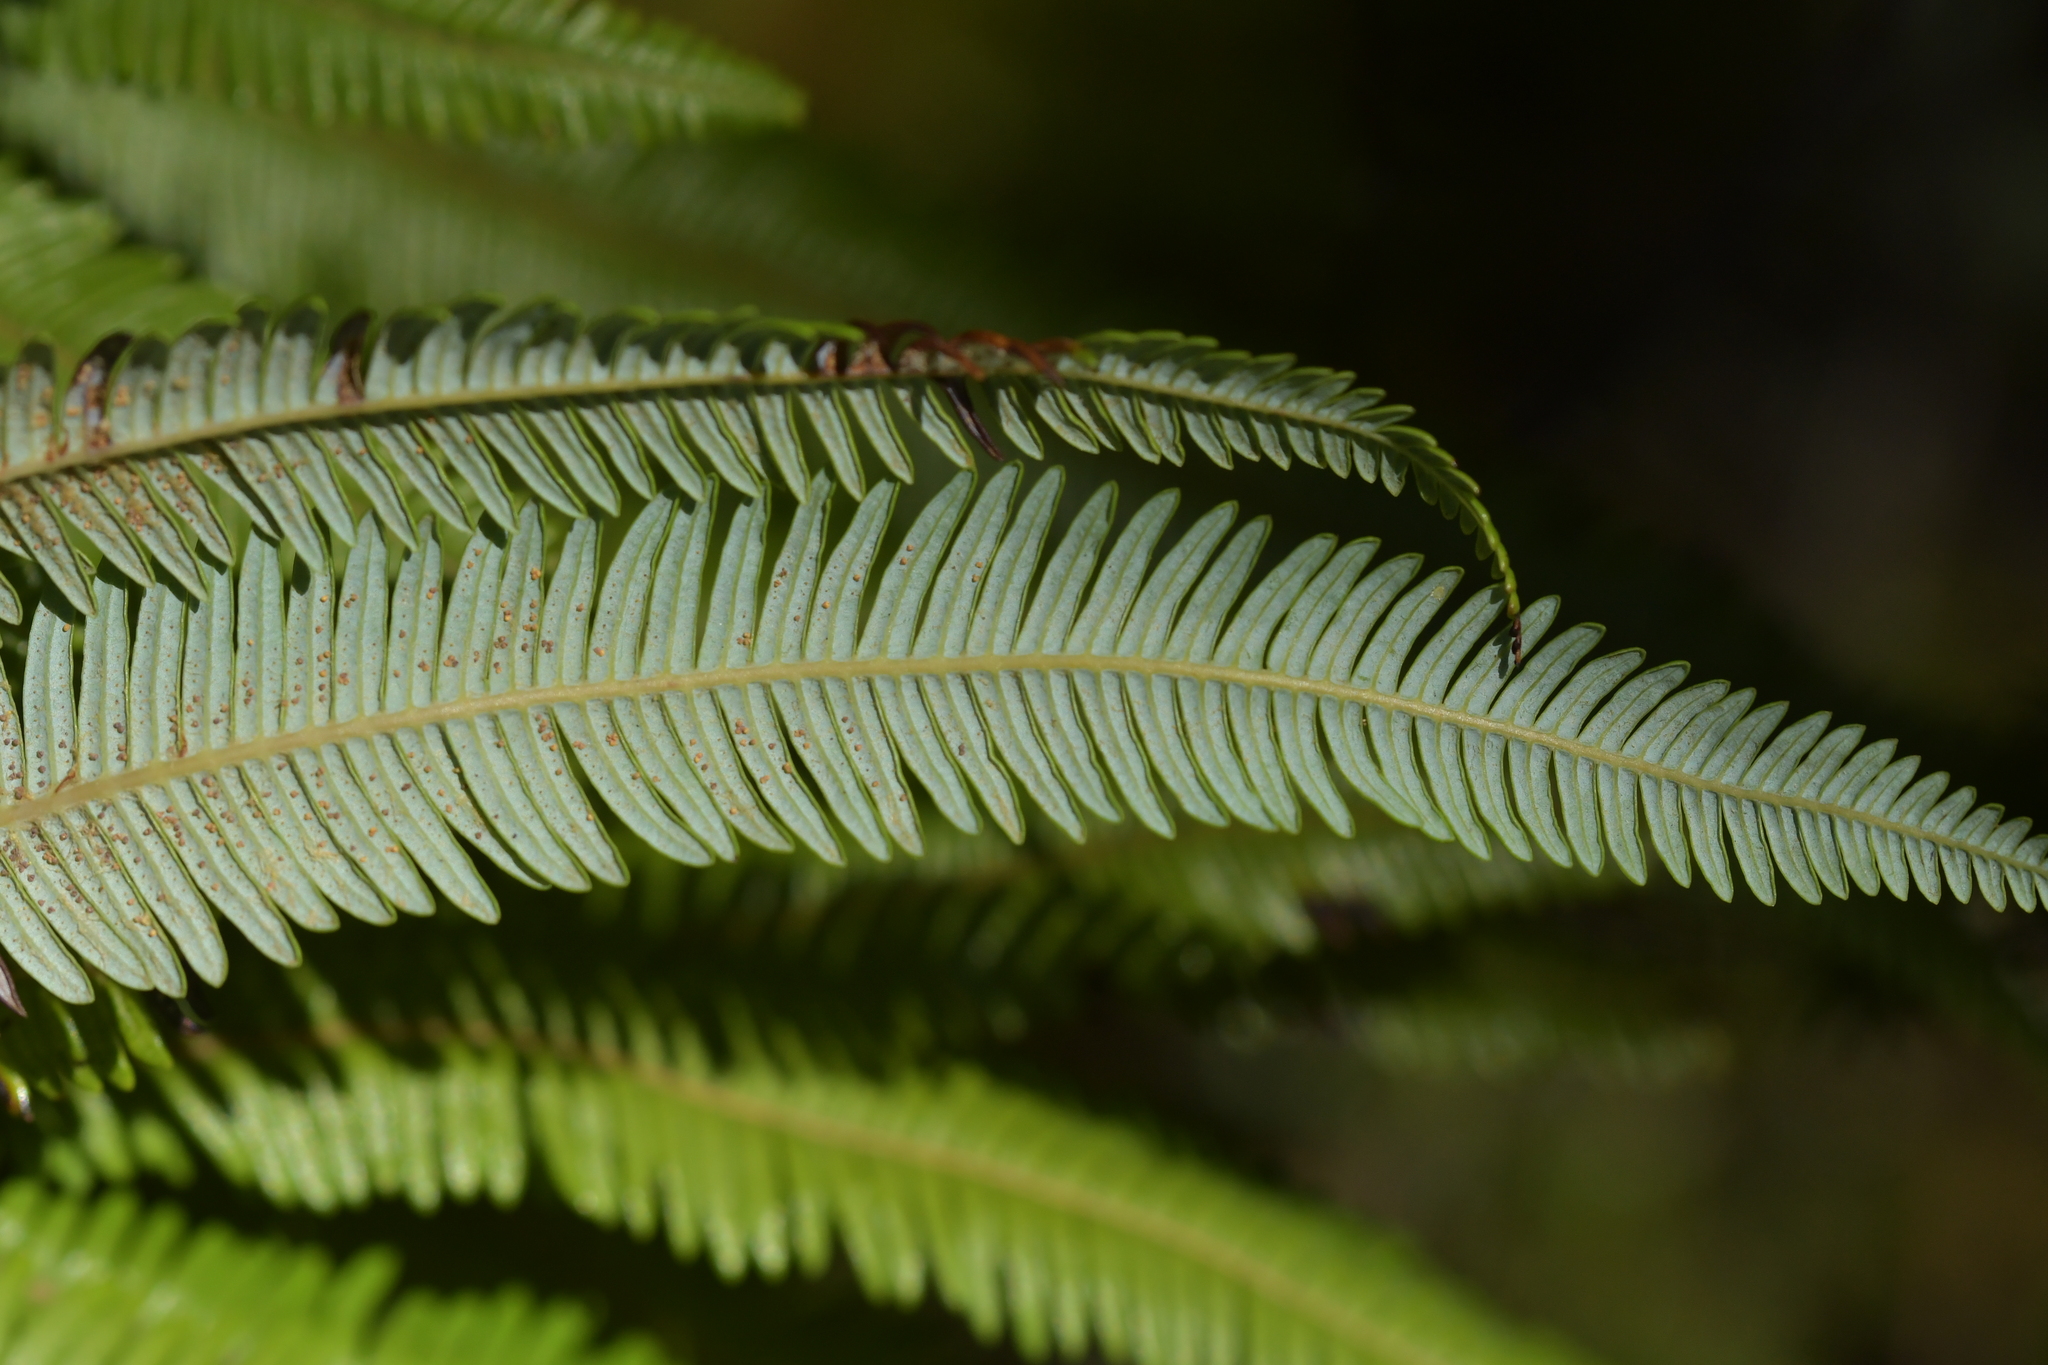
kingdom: Plantae
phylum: Tracheophyta
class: Polypodiopsida
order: Gleicheniales
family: Gleicheniaceae
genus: Sticherus
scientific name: Sticherus cunninghamii
